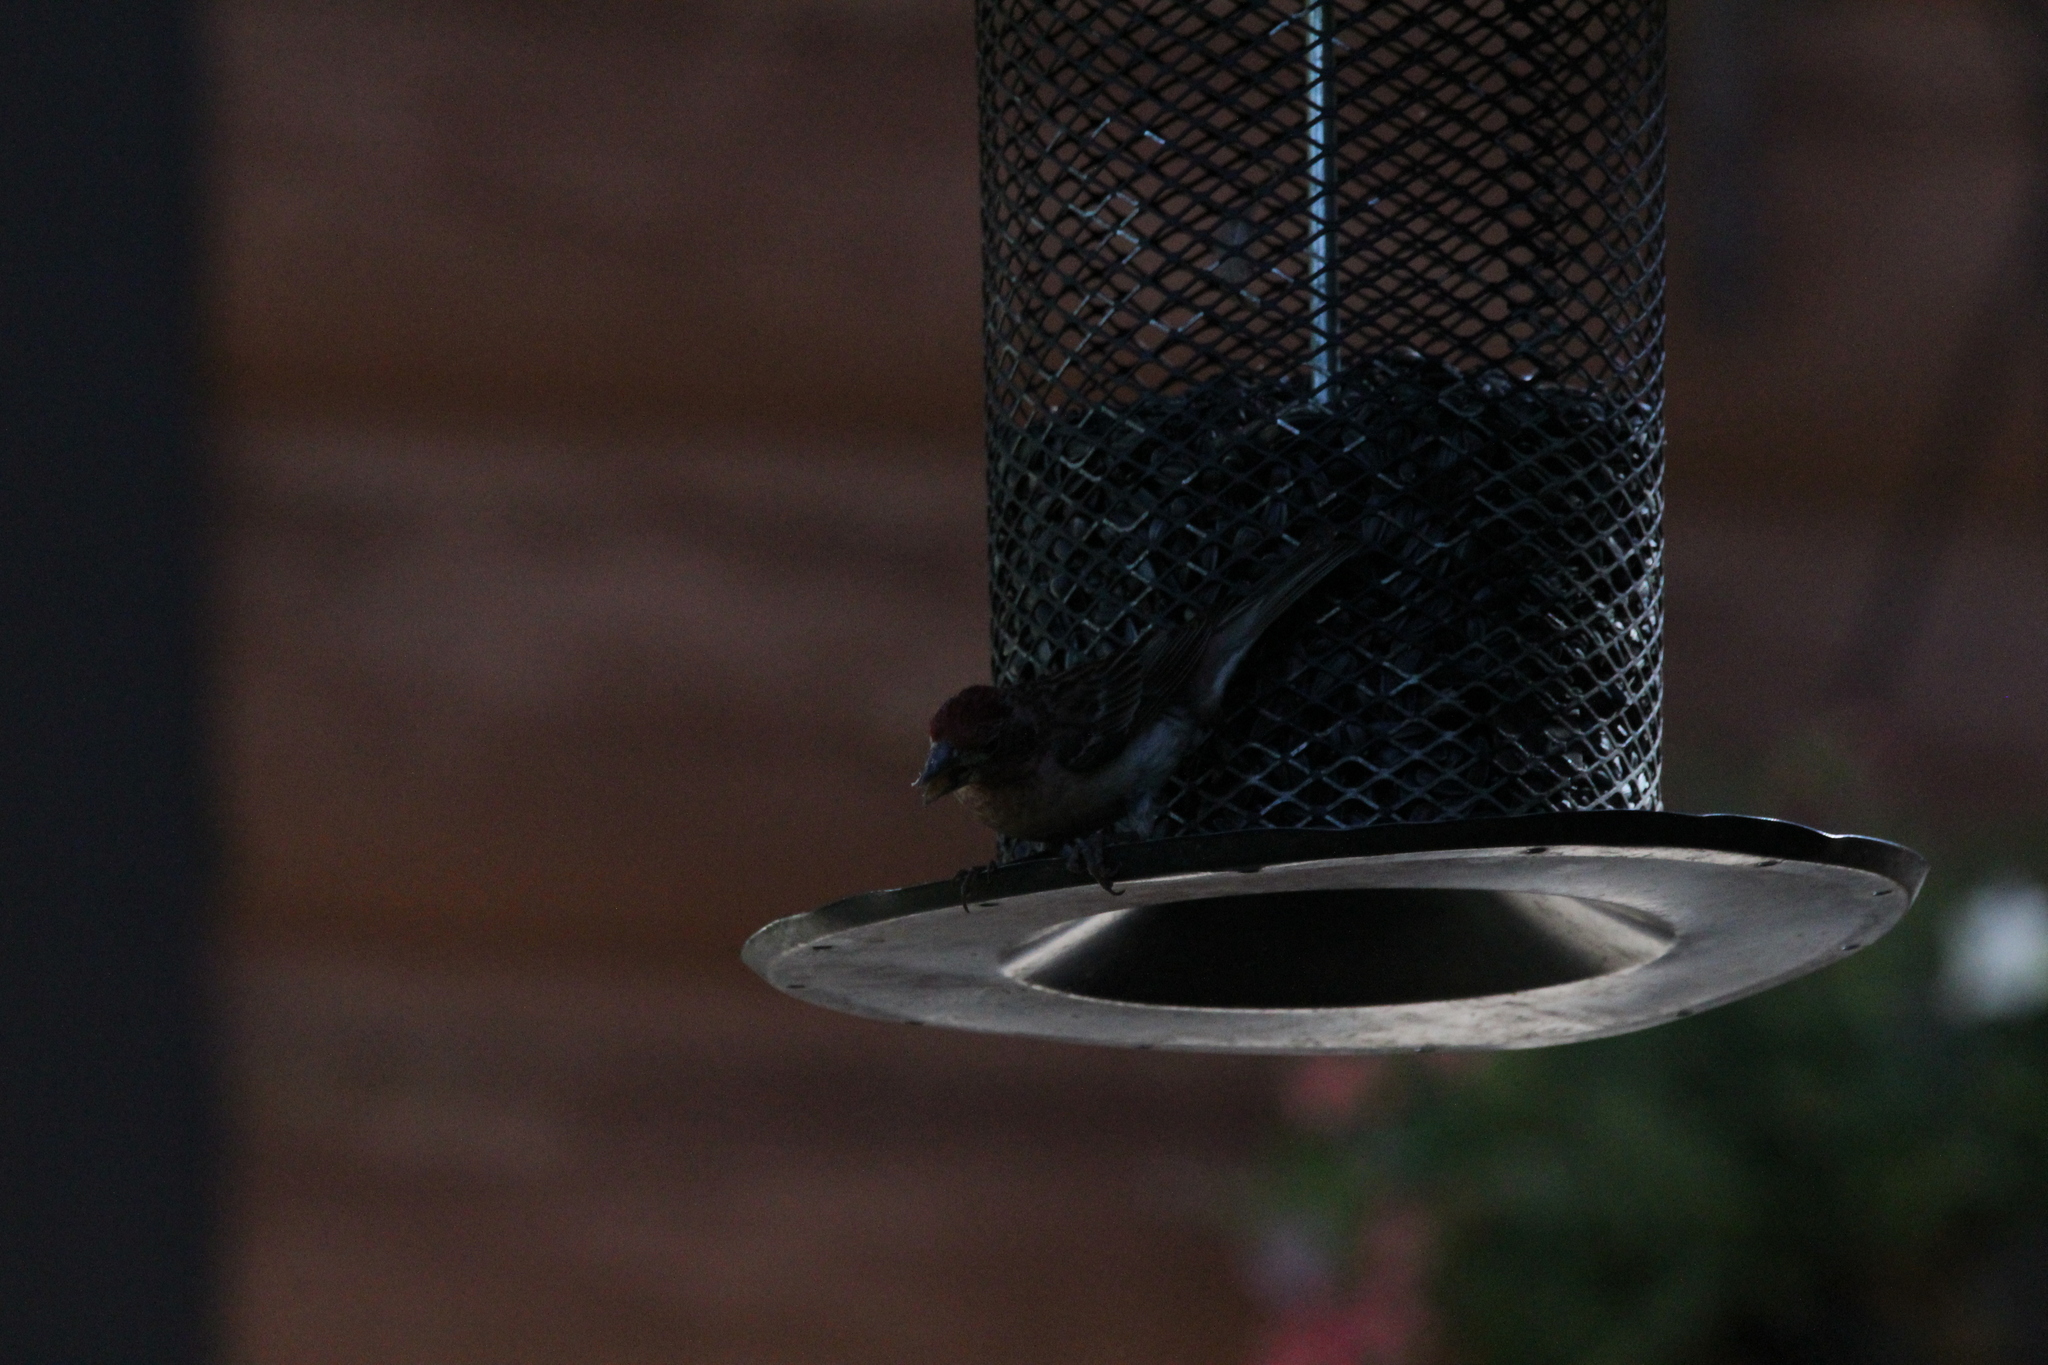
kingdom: Animalia
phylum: Chordata
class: Aves
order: Passeriformes
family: Fringillidae
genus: Haemorhous
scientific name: Haemorhous cassinii
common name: Cassin's finch
